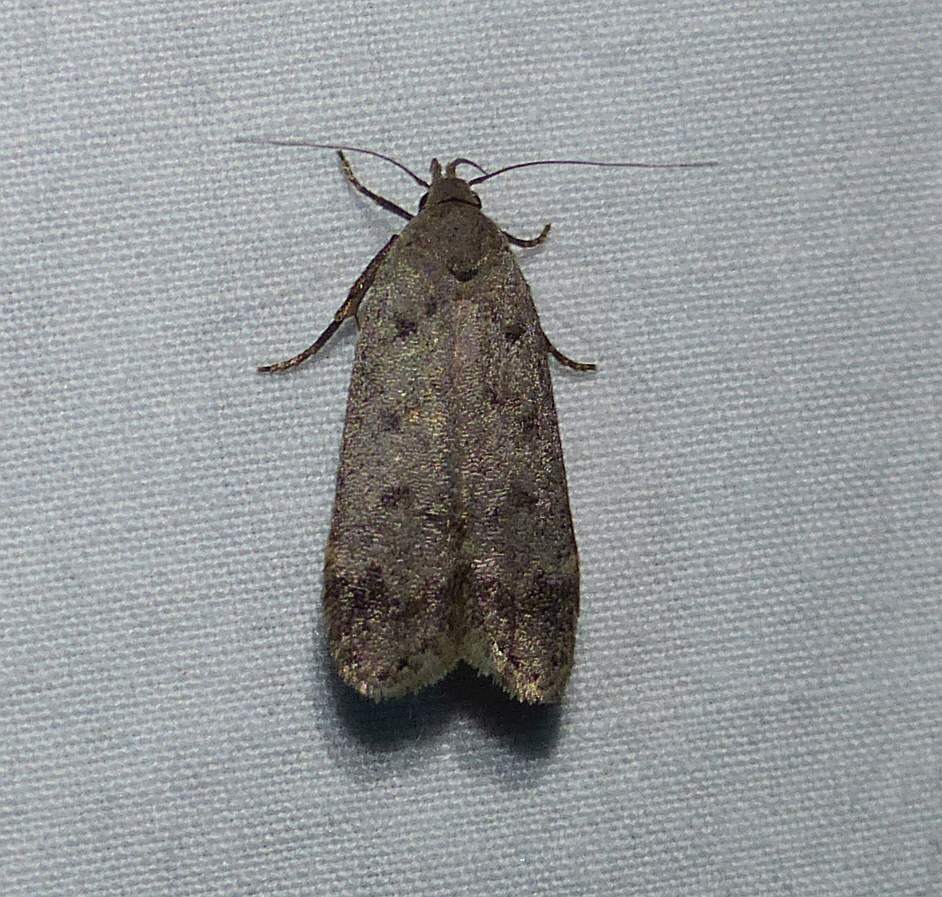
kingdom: Animalia
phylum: Arthropoda
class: Insecta
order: Lepidoptera
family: Gelechiidae
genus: Anacampsis
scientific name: Anacampsis innocuella
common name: Dark-headed aspen leafroller moth
